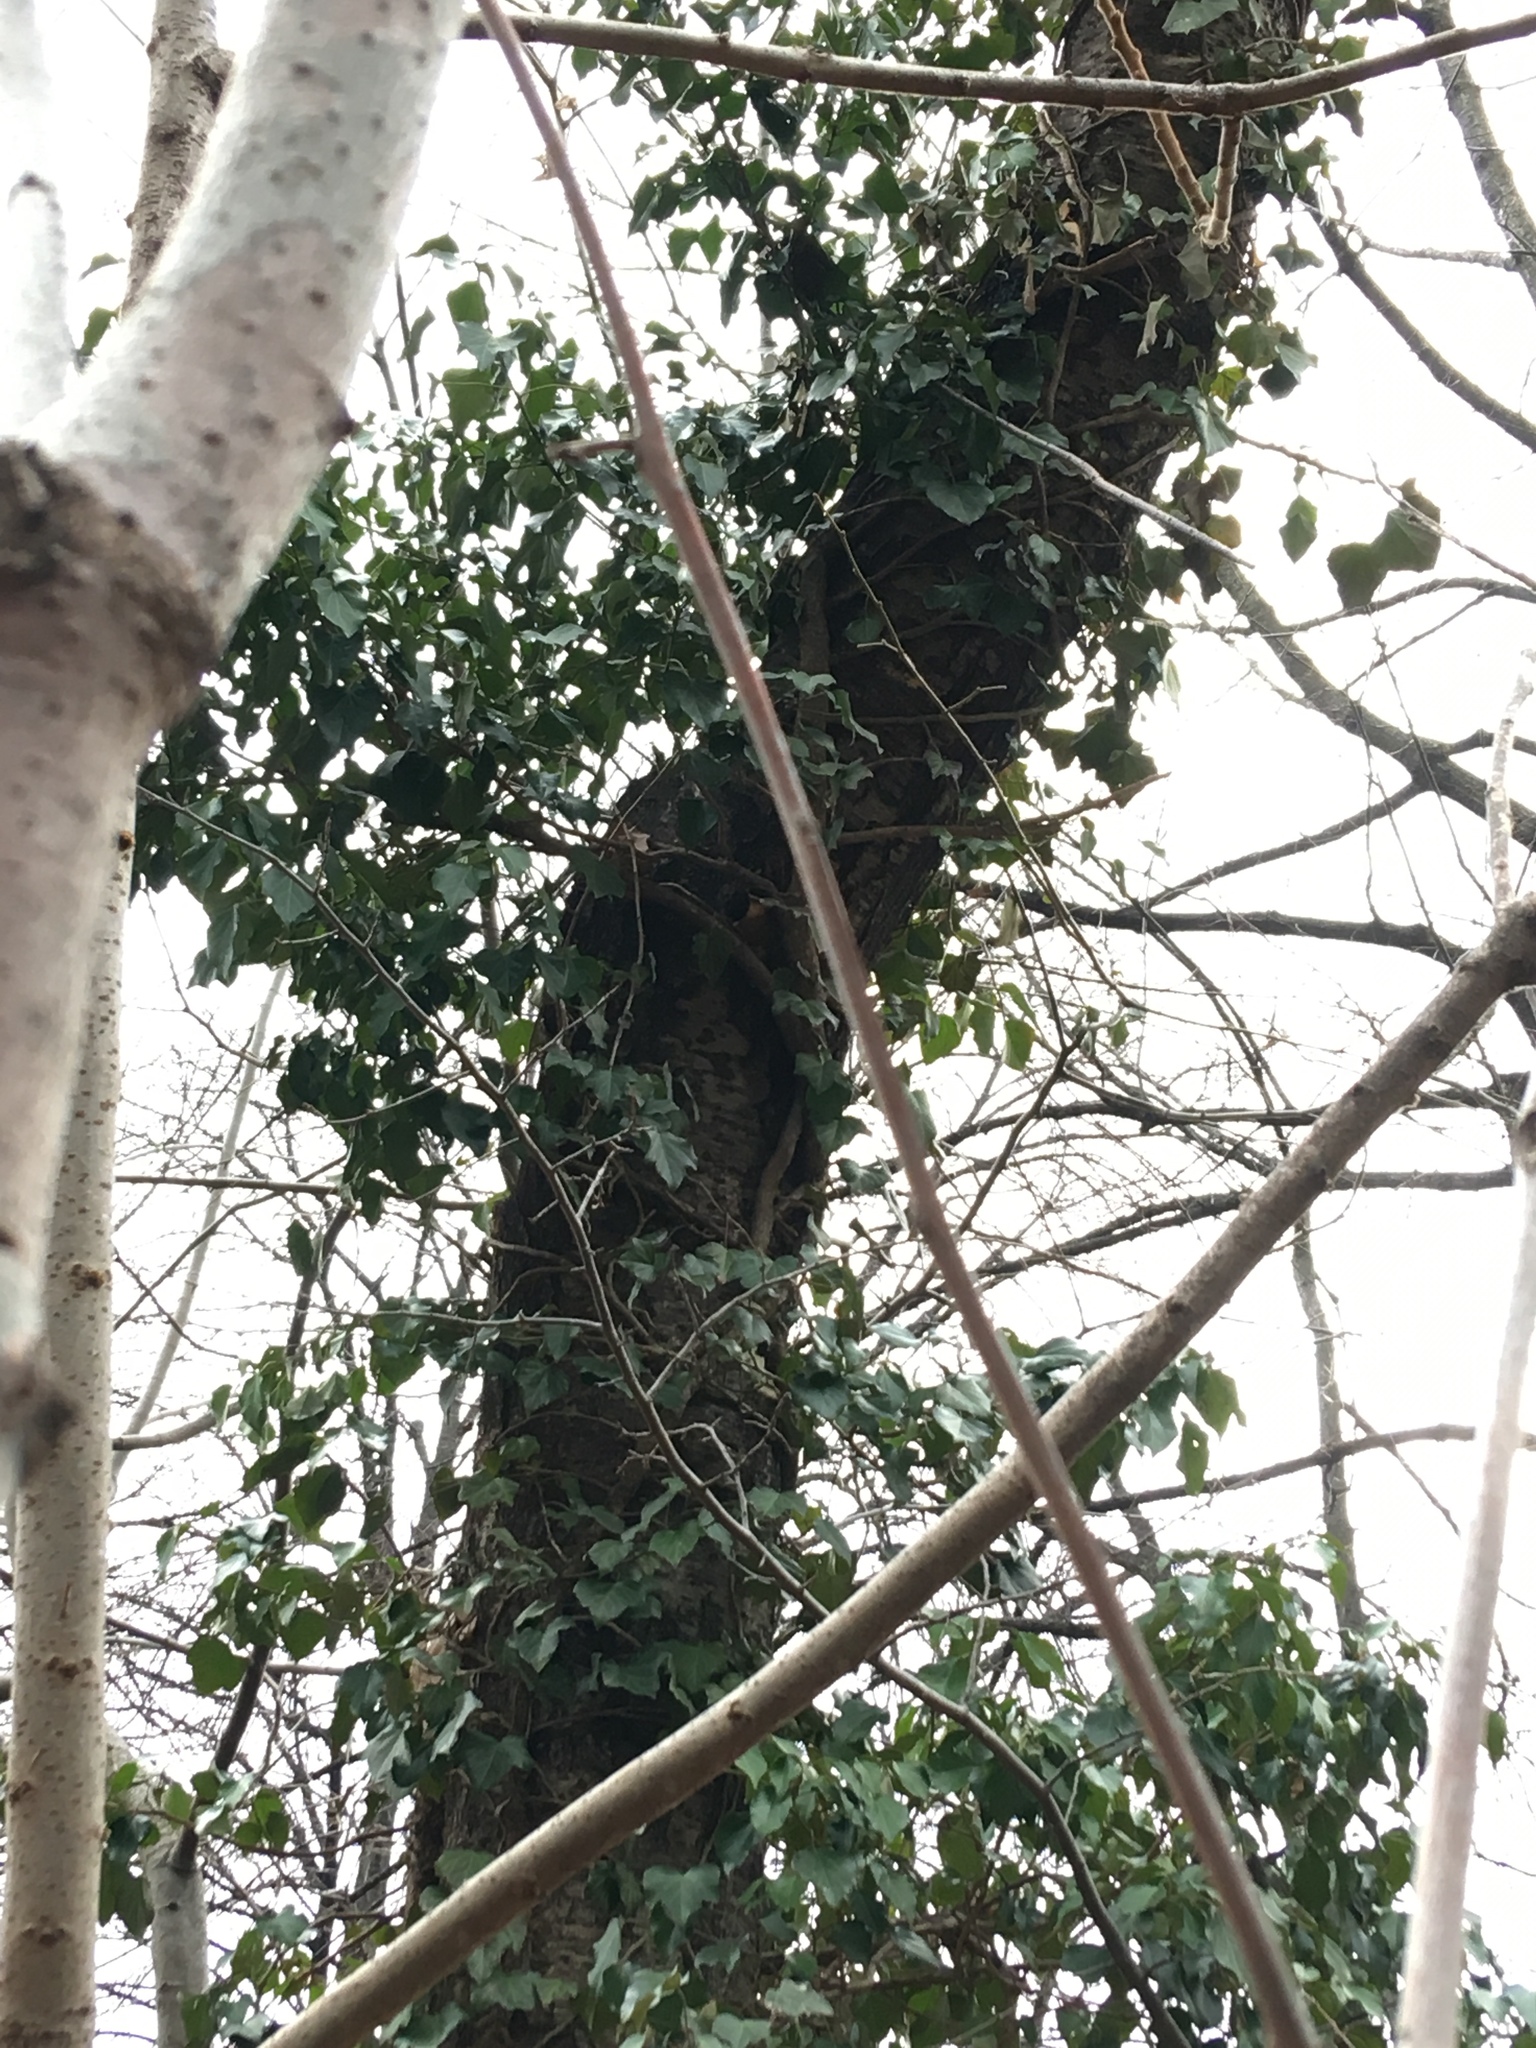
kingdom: Plantae
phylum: Tracheophyta
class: Magnoliopsida
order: Apiales
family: Araliaceae
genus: Hedera
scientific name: Hedera helix
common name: Ivy
